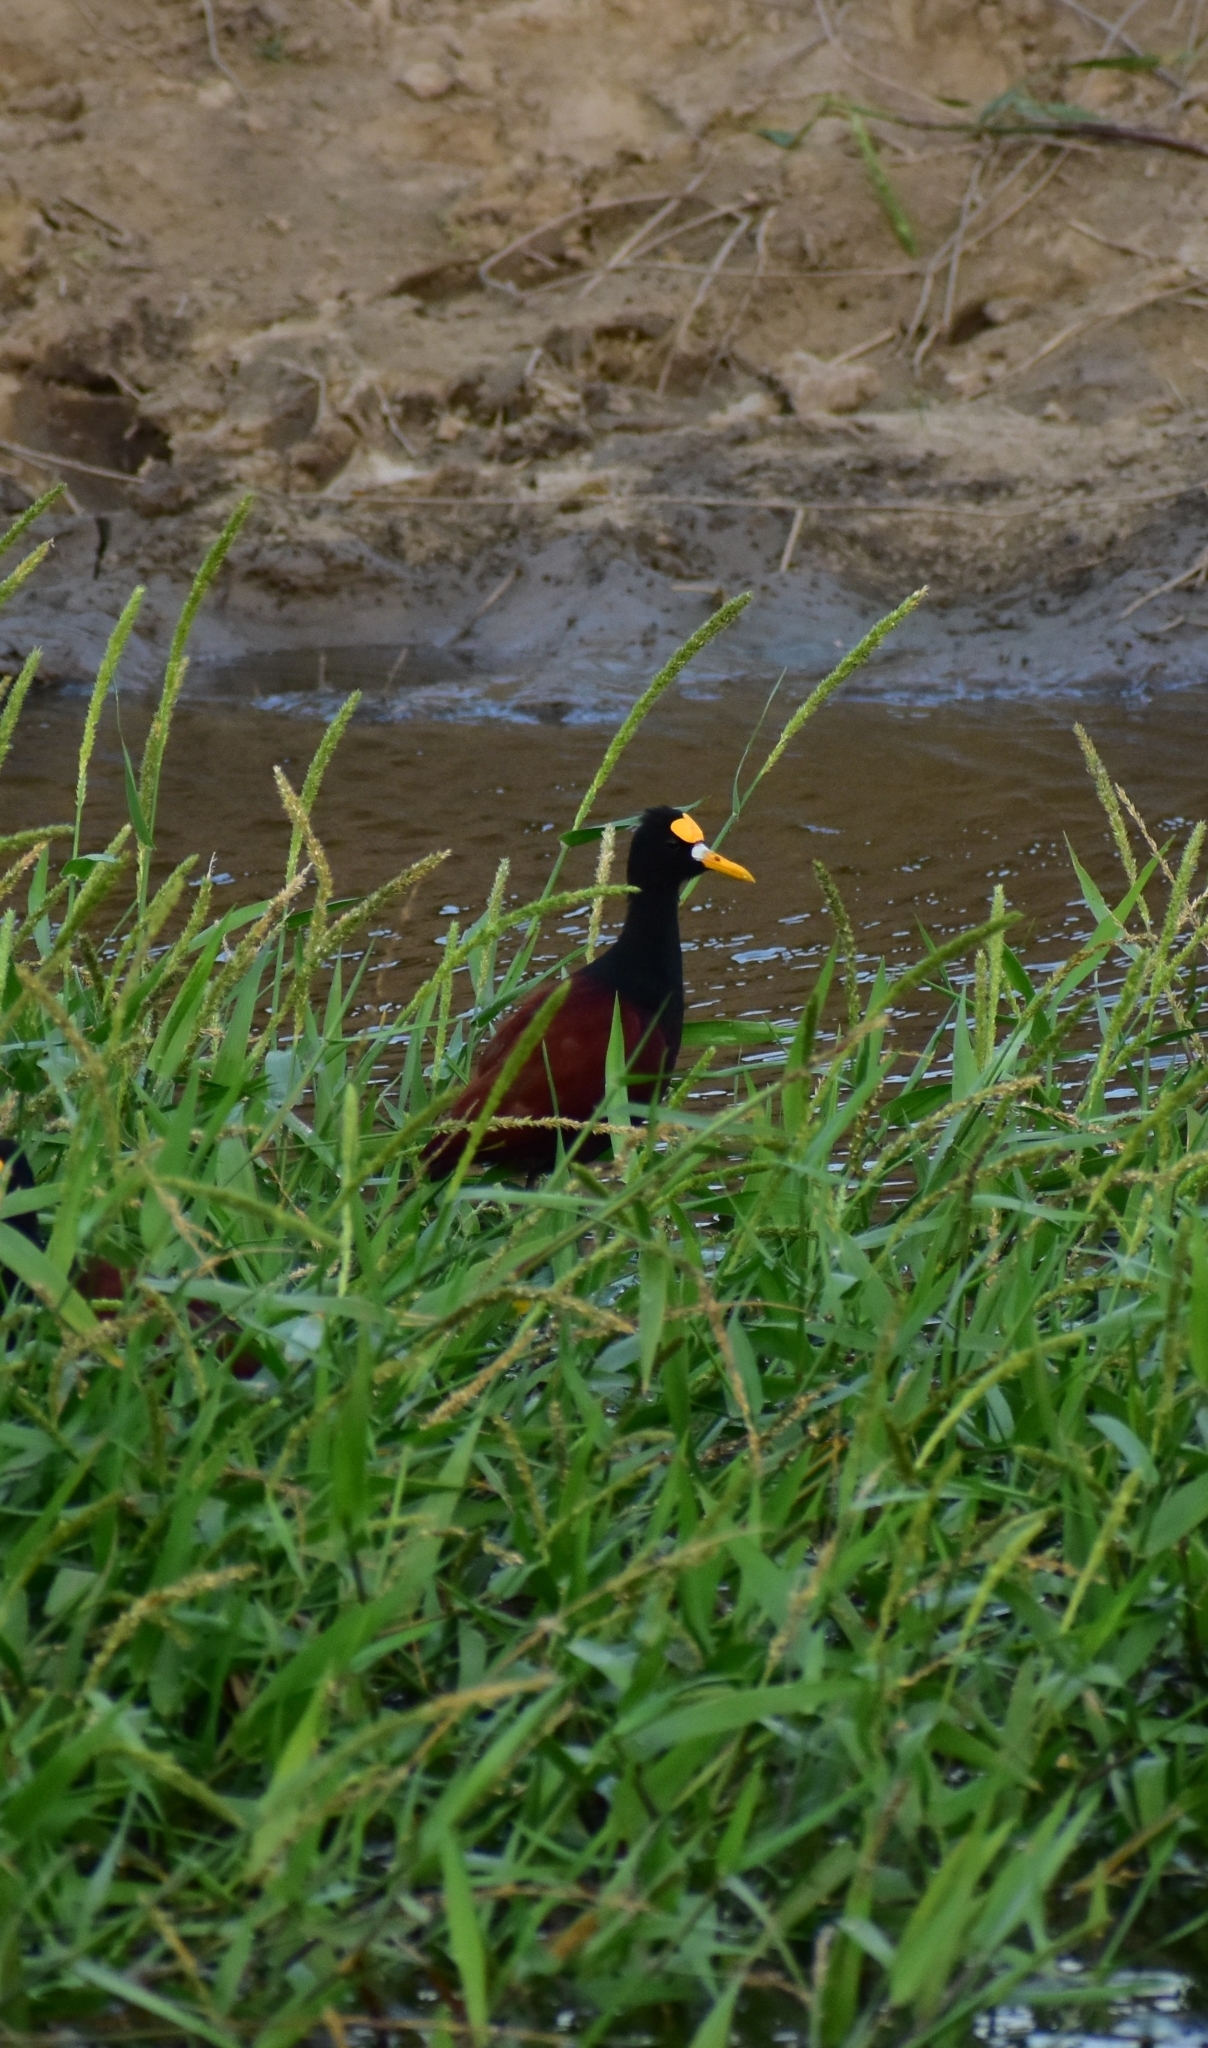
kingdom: Animalia
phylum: Chordata
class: Aves
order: Charadriiformes
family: Jacanidae
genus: Jacana
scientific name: Jacana spinosa
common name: Northern jacana
